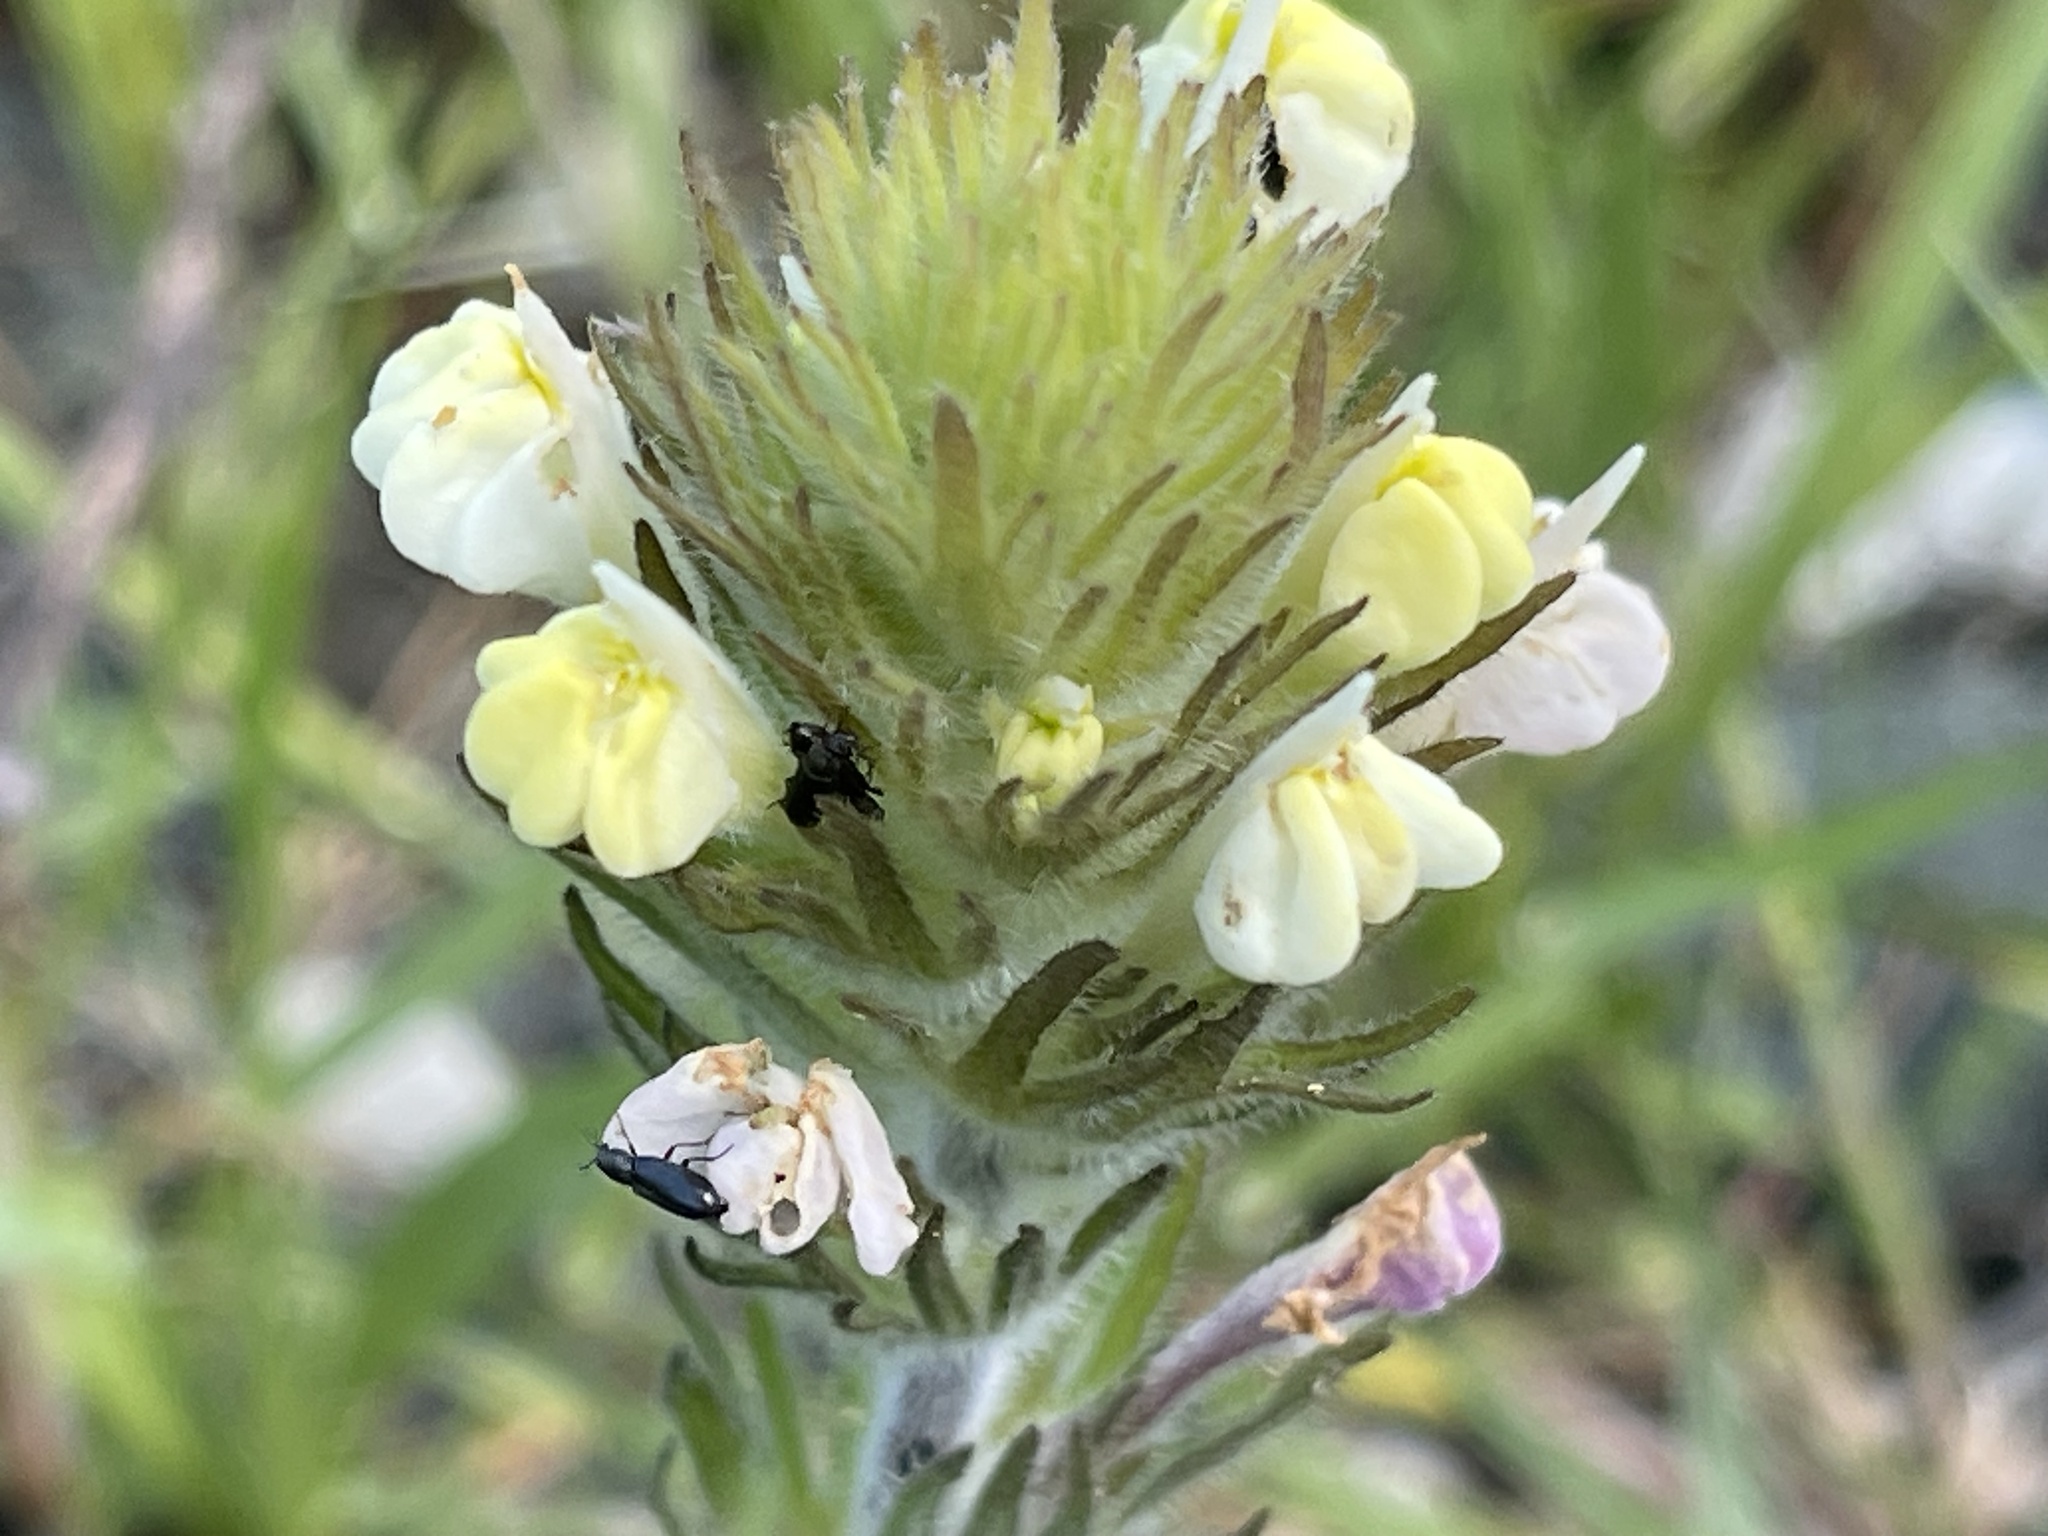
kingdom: Plantae
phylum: Tracheophyta
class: Magnoliopsida
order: Lamiales
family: Orobanchaceae
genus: Castilleja
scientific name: Castilleja rubicundula
